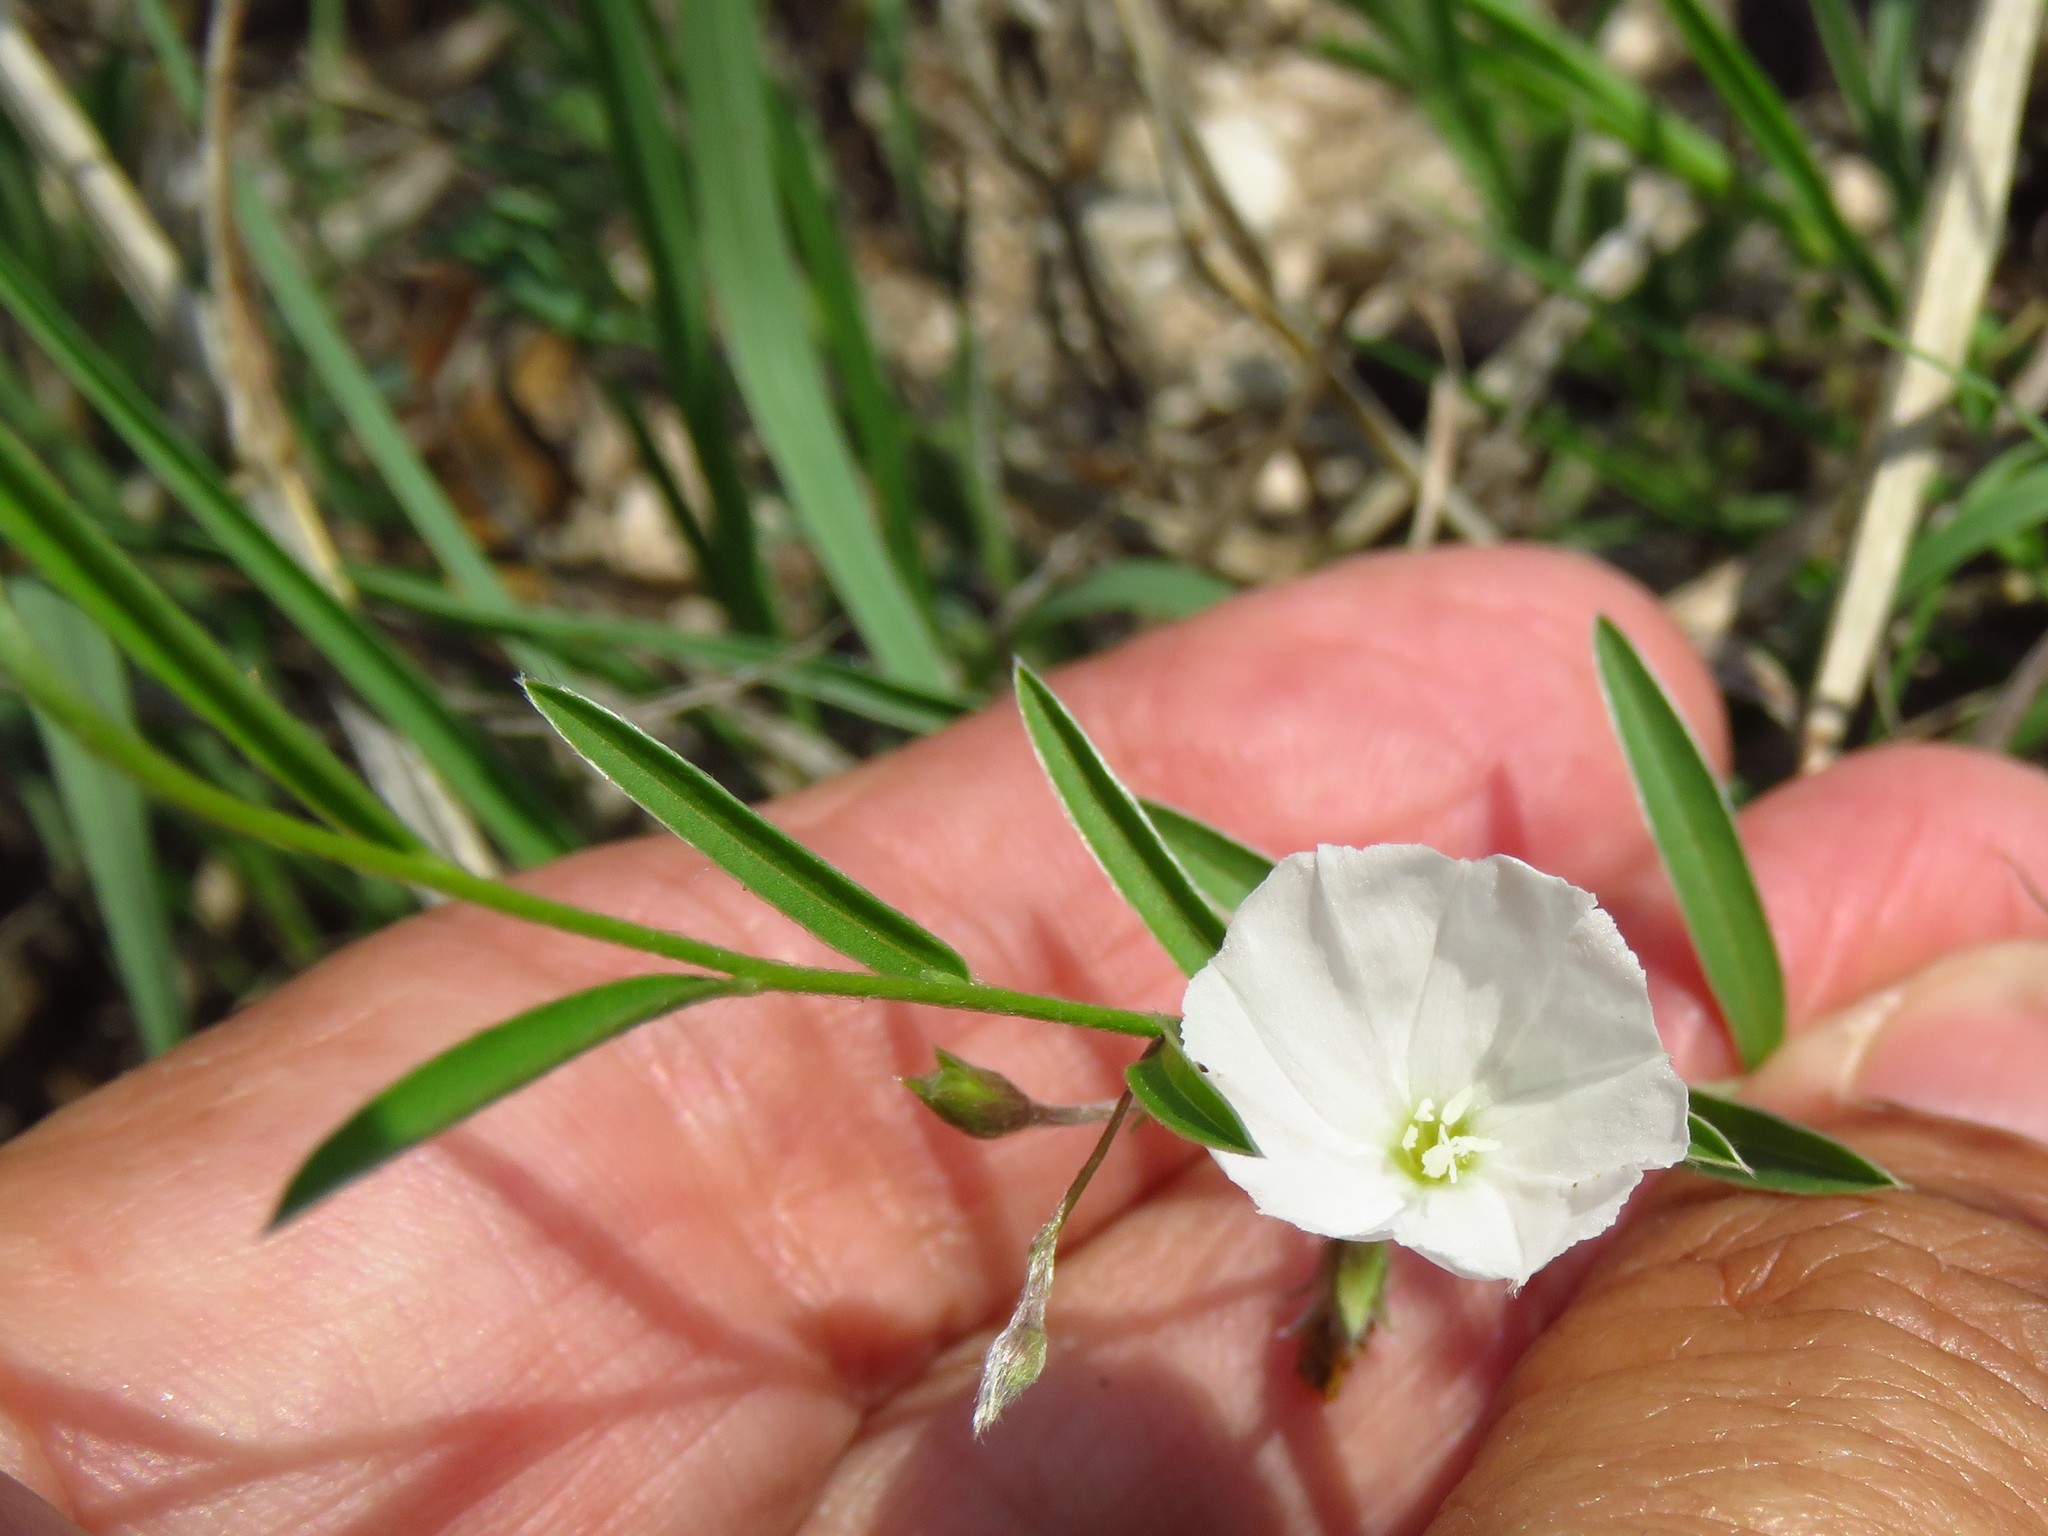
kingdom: Plantae
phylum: Tracheophyta
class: Magnoliopsida
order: Solanales
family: Convolvulaceae
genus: Evolvulus
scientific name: Evolvulus sericeus
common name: Blue dots
